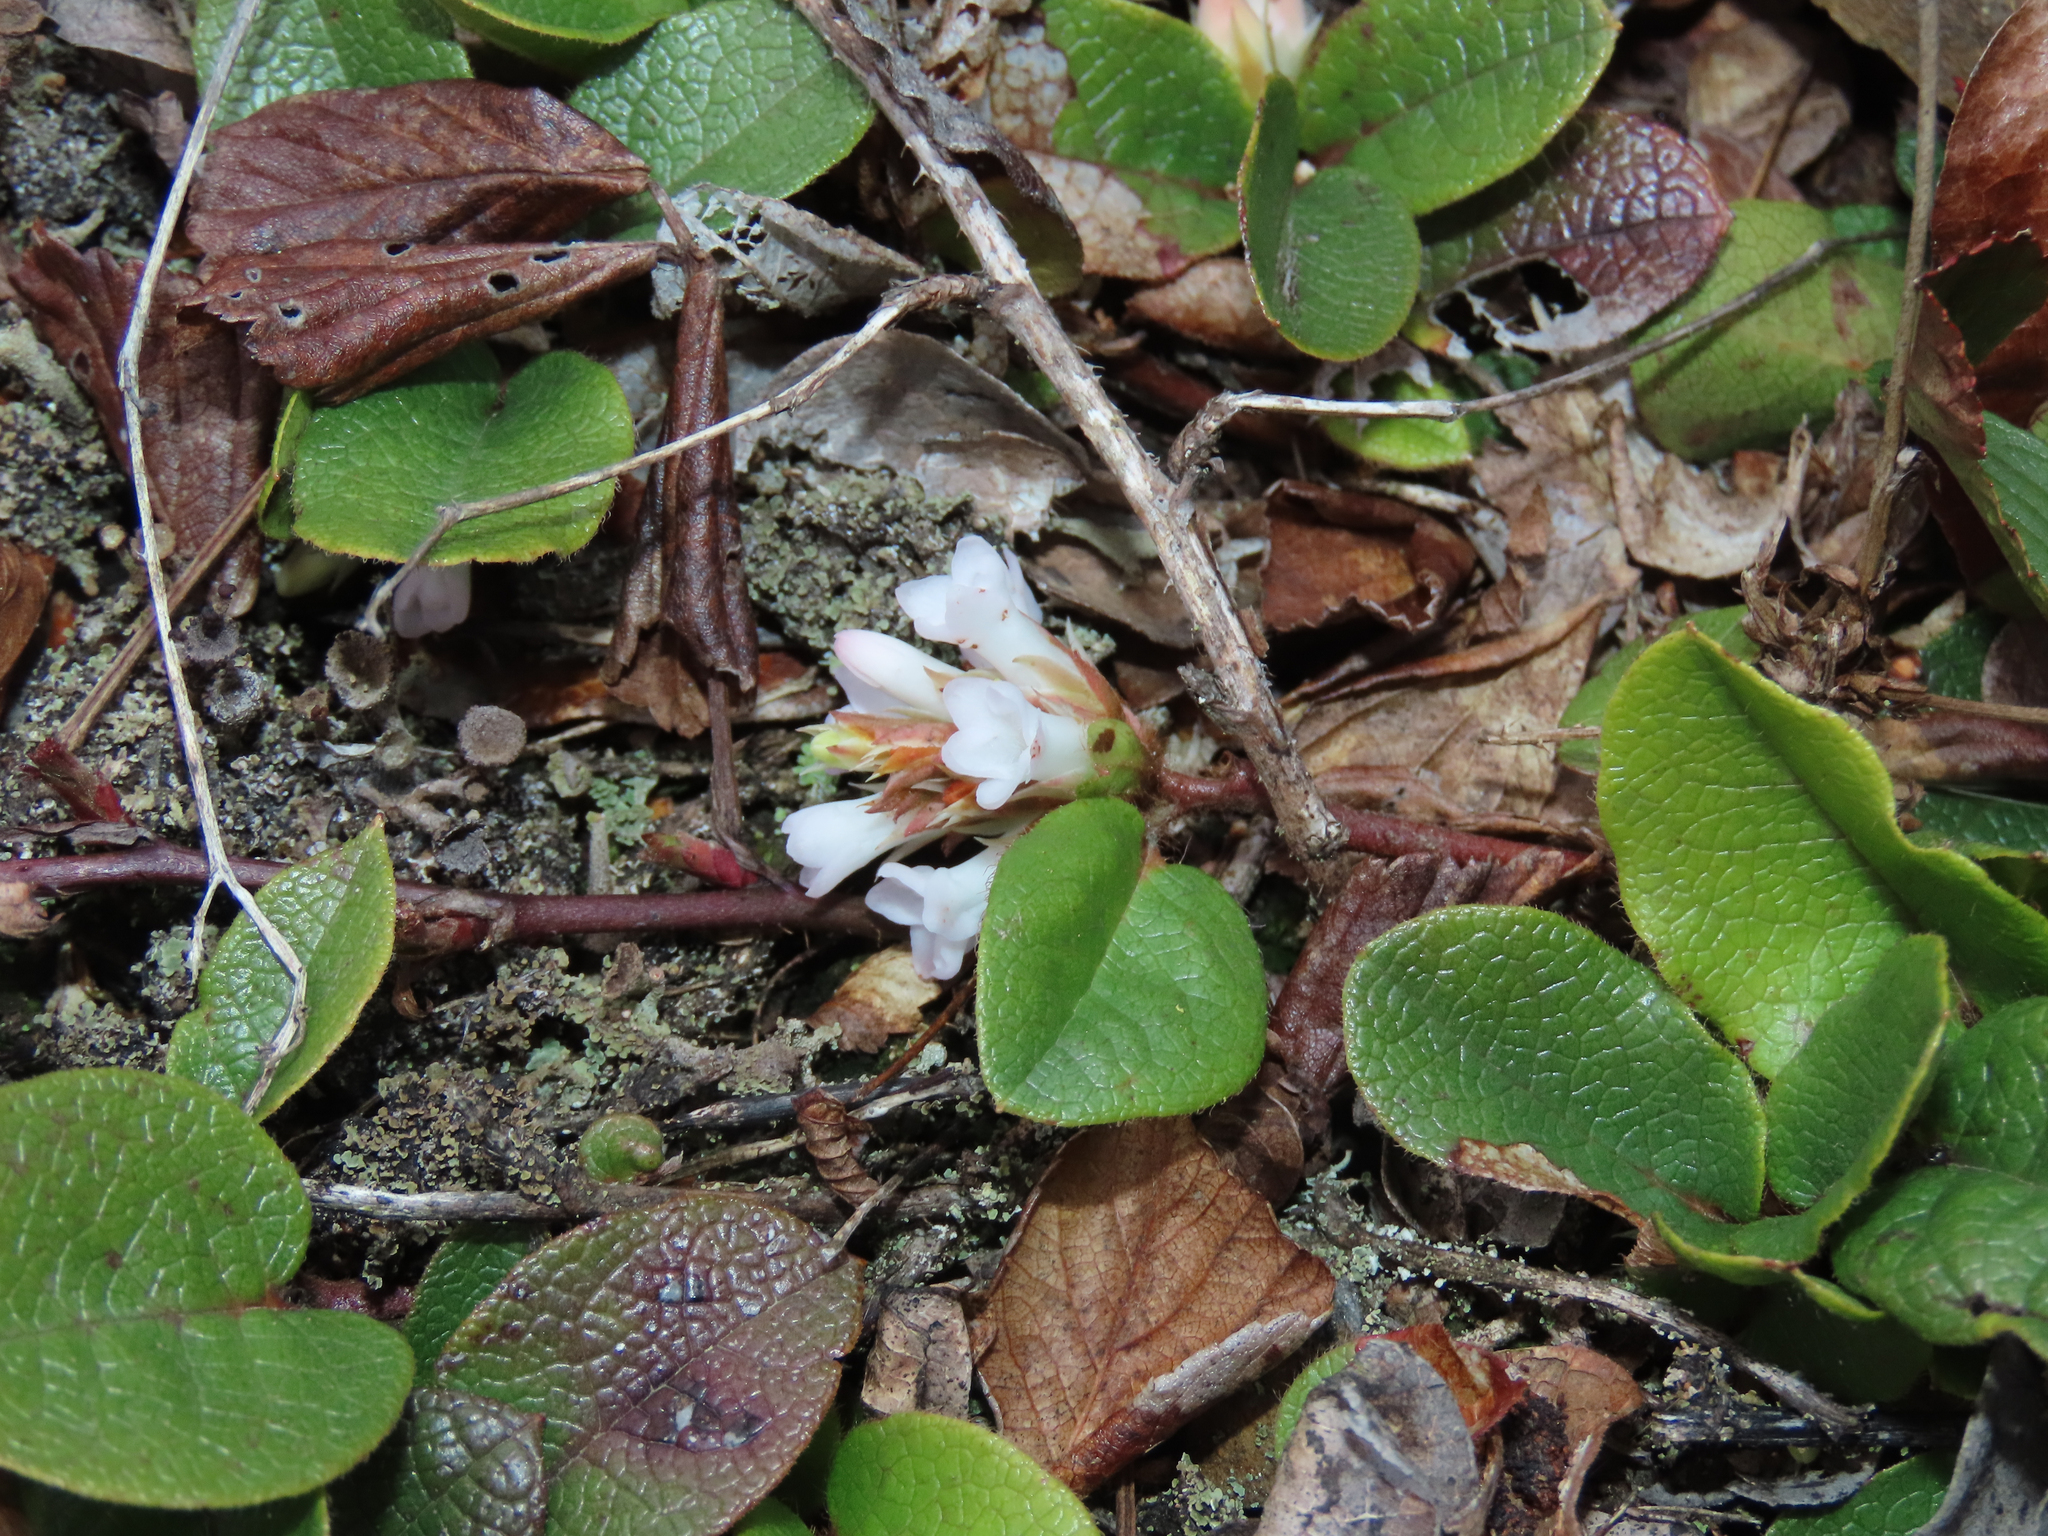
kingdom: Plantae
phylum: Tracheophyta
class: Magnoliopsida
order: Ericales
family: Ericaceae
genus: Epigaea
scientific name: Epigaea repens
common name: Gravelroot
